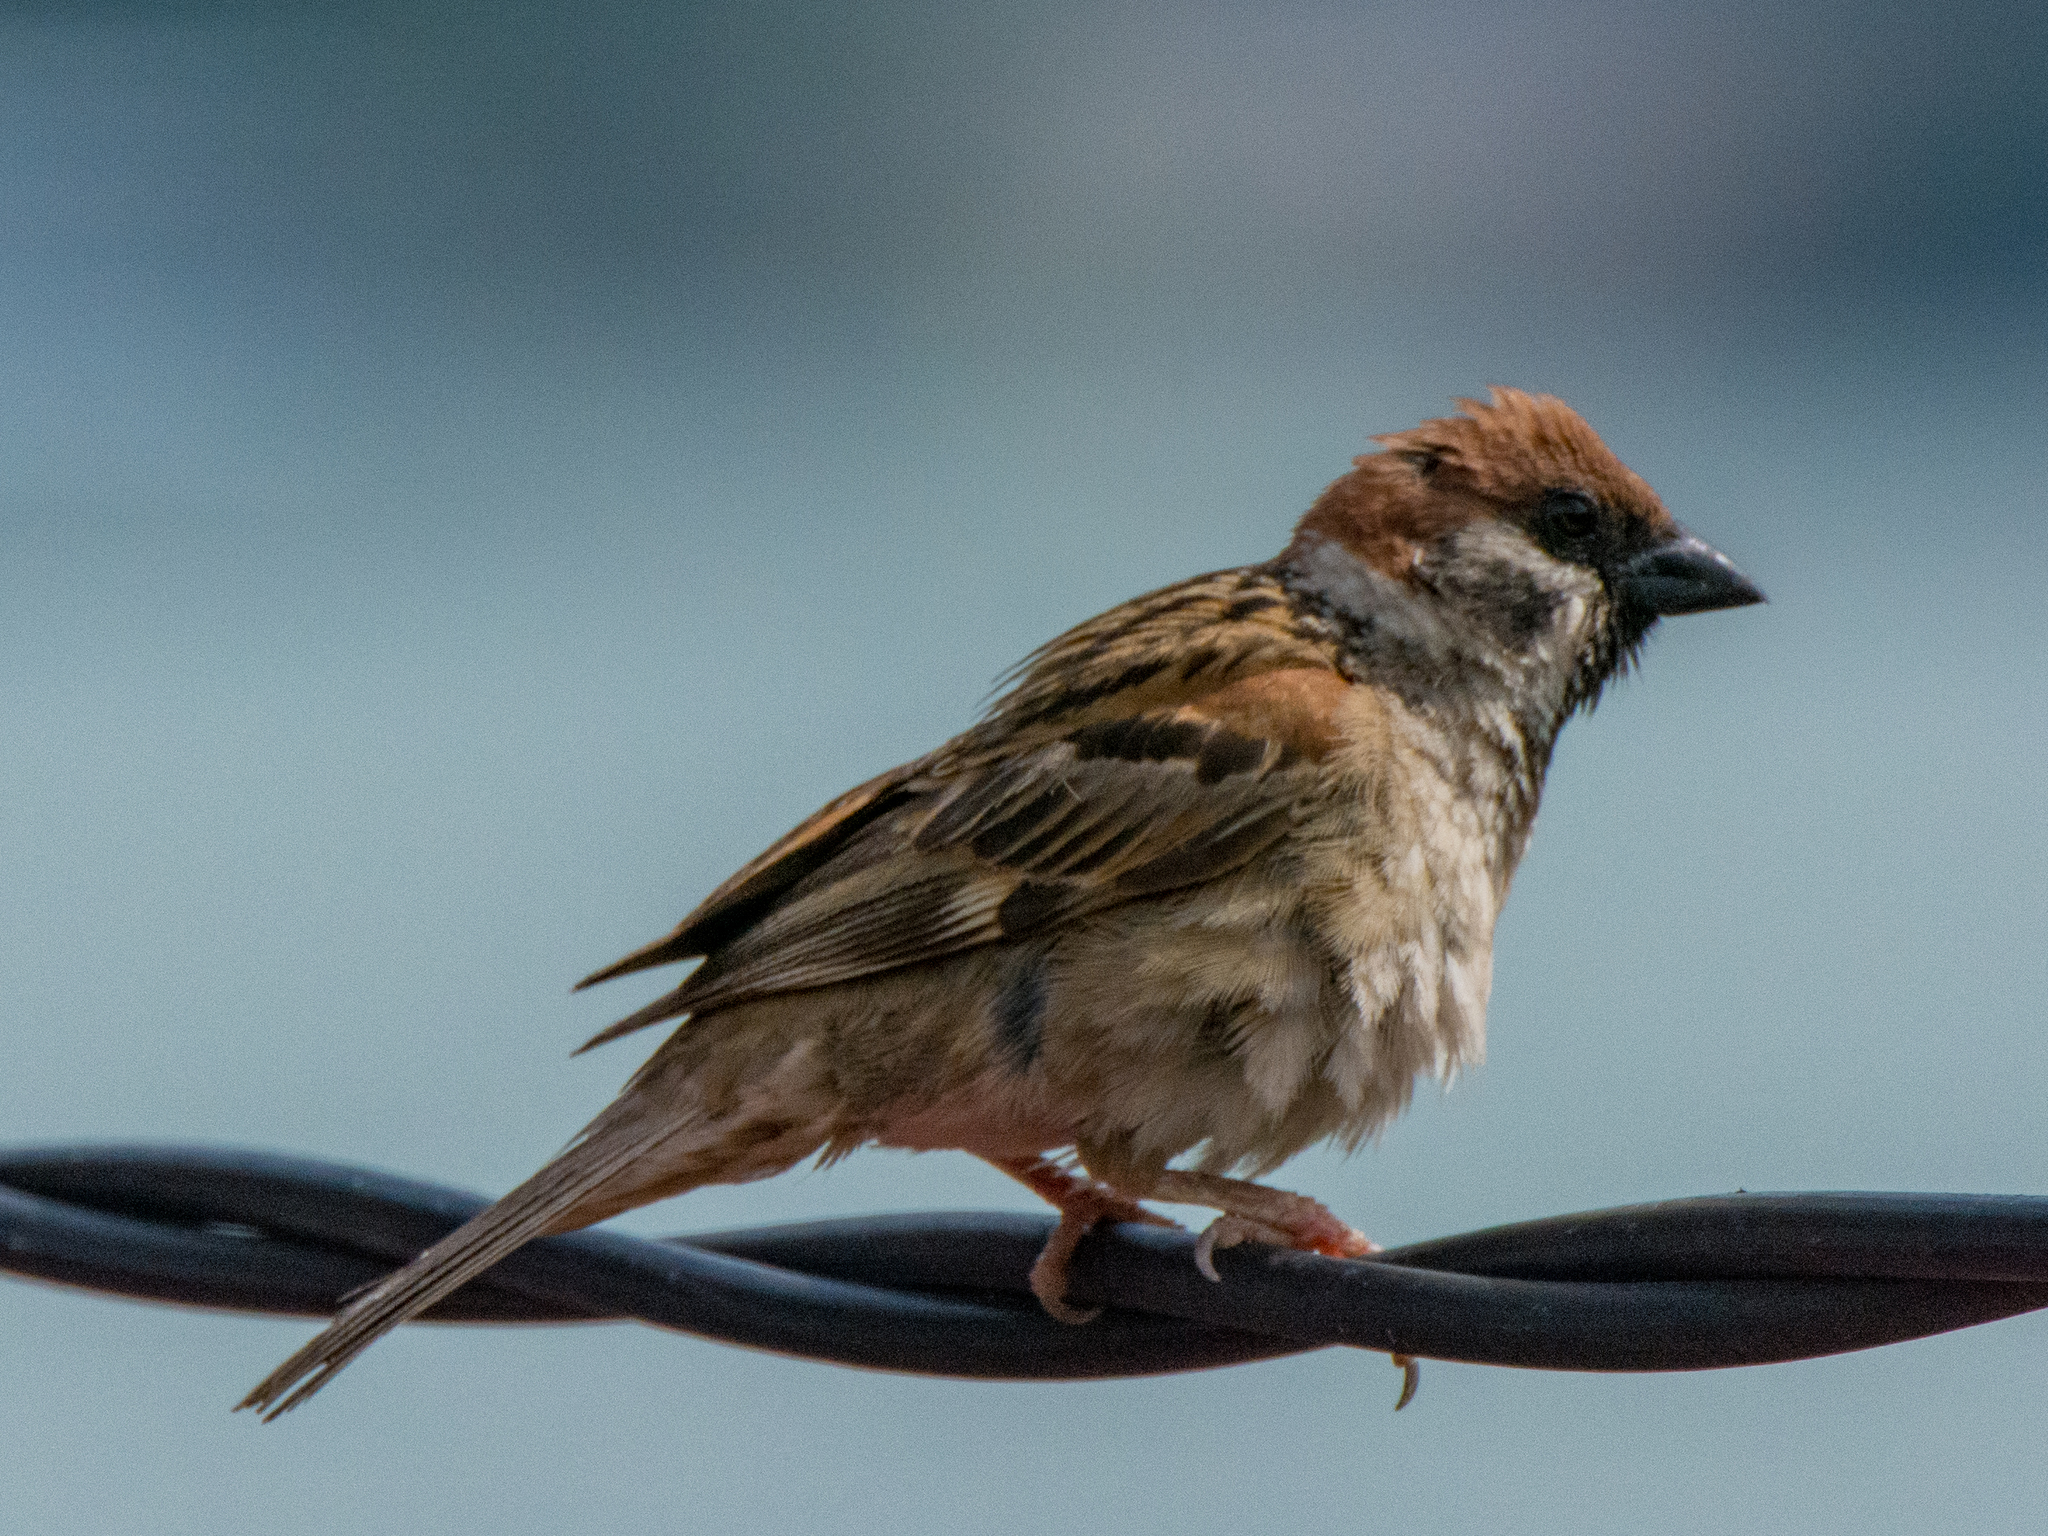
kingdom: Animalia
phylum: Chordata
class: Aves
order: Passeriformes
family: Passeridae
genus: Passer
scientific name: Passer montanus
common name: Eurasian tree sparrow
